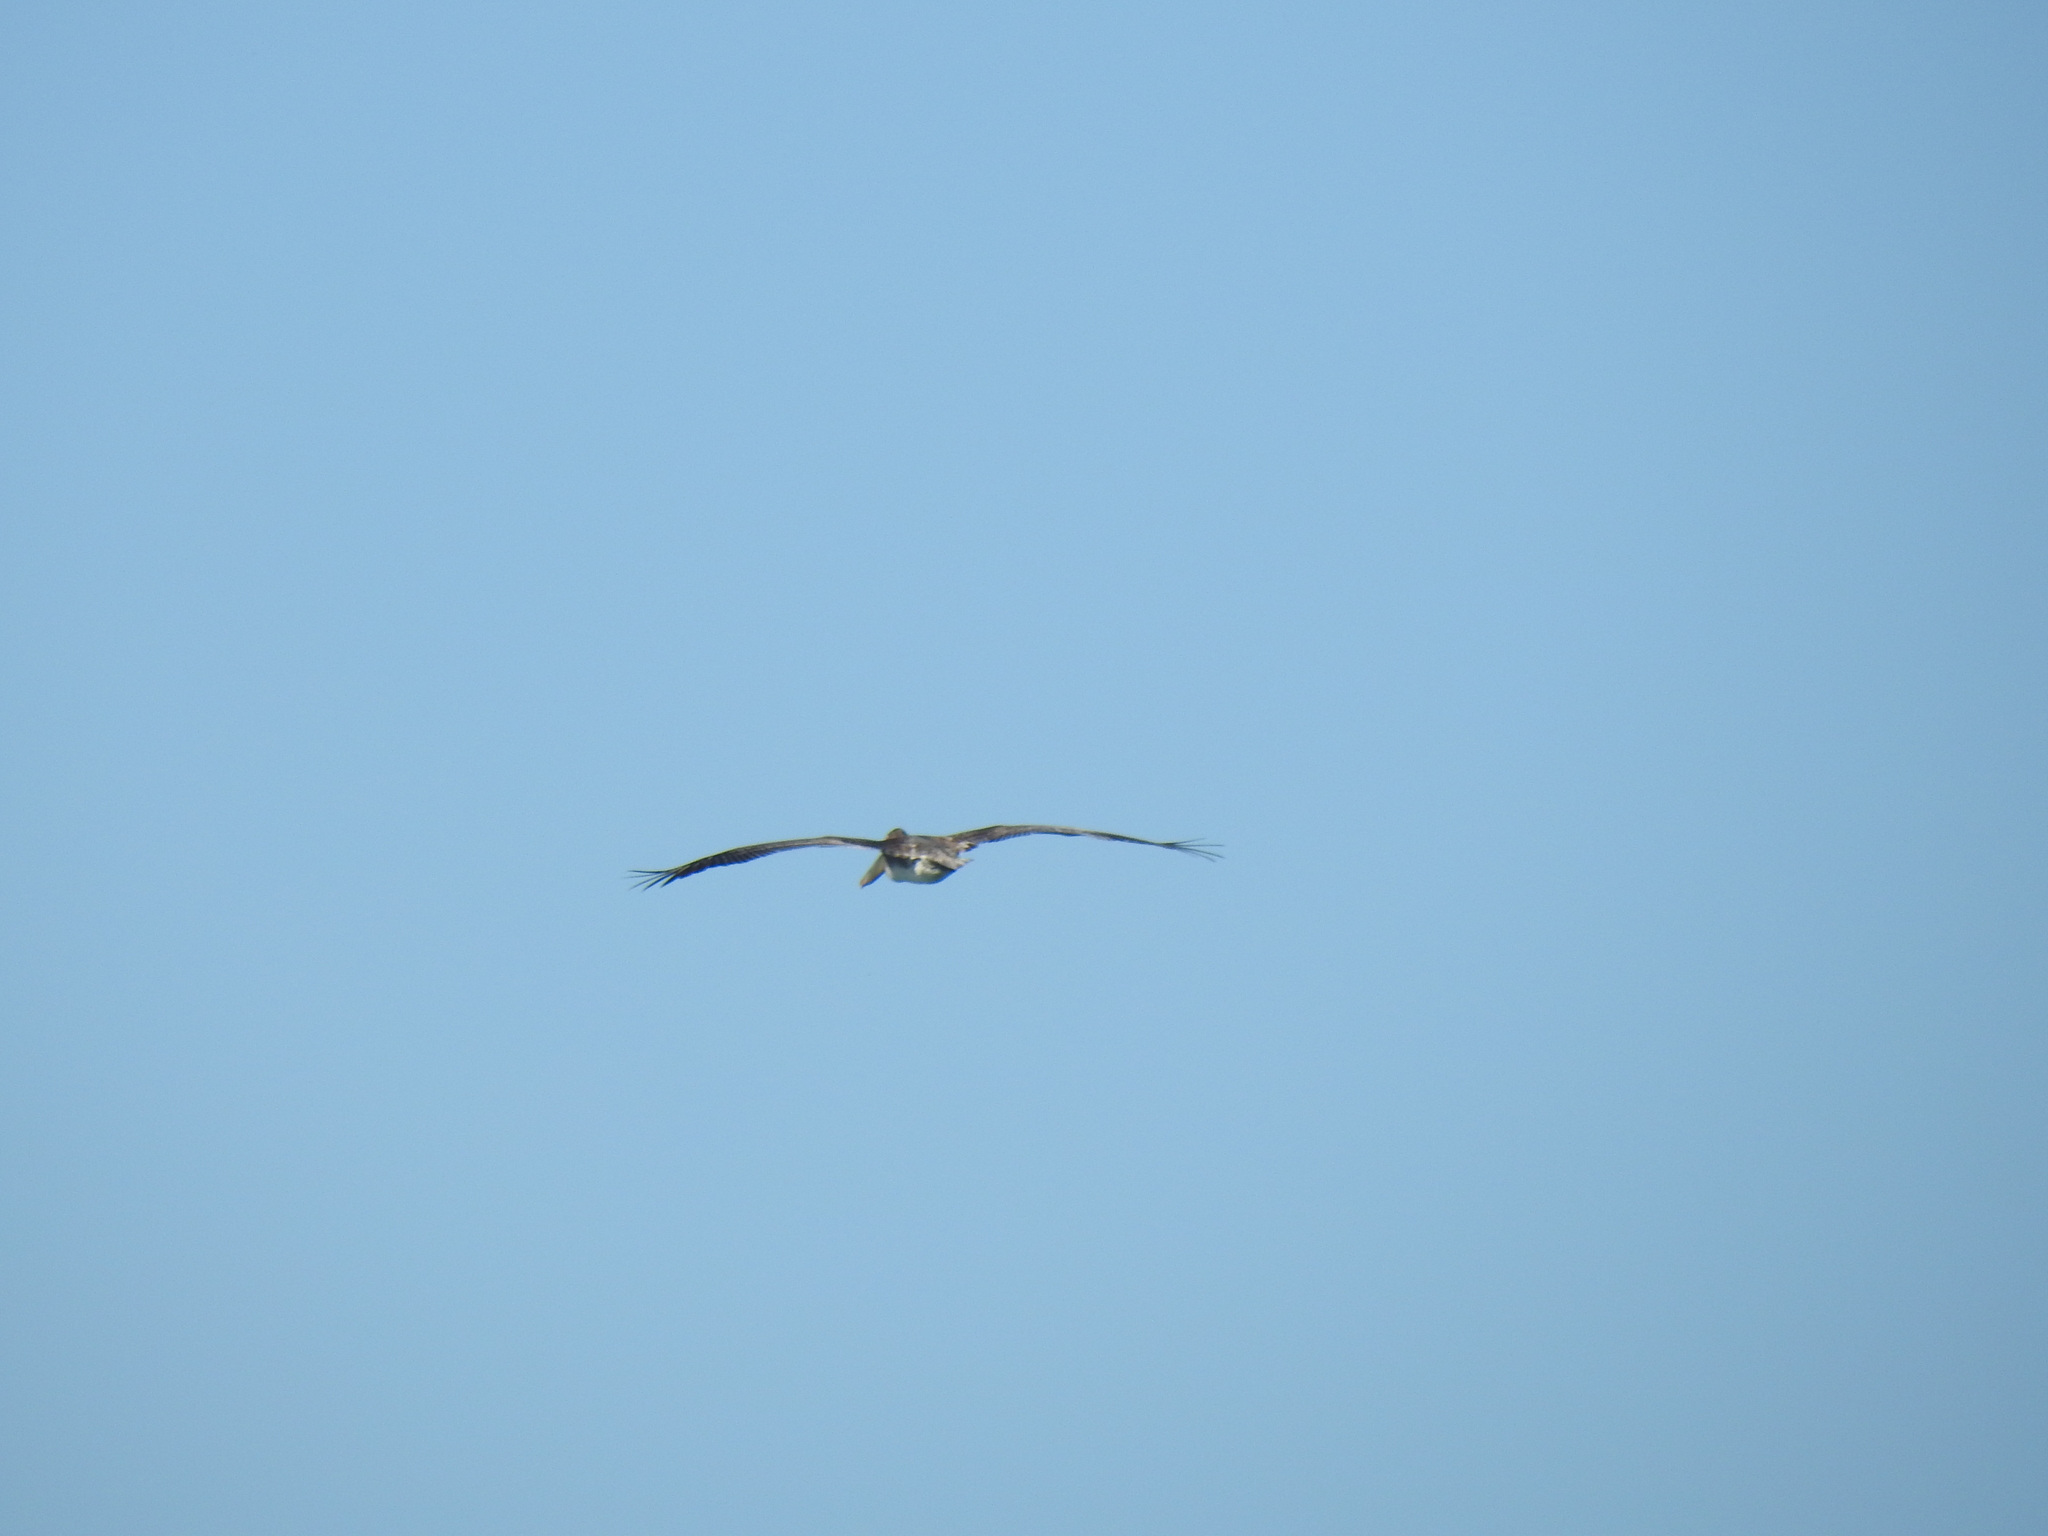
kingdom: Animalia
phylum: Chordata
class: Aves
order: Pelecaniformes
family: Pelecanidae
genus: Pelecanus
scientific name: Pelecanus occidentalis
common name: Brown pelican
